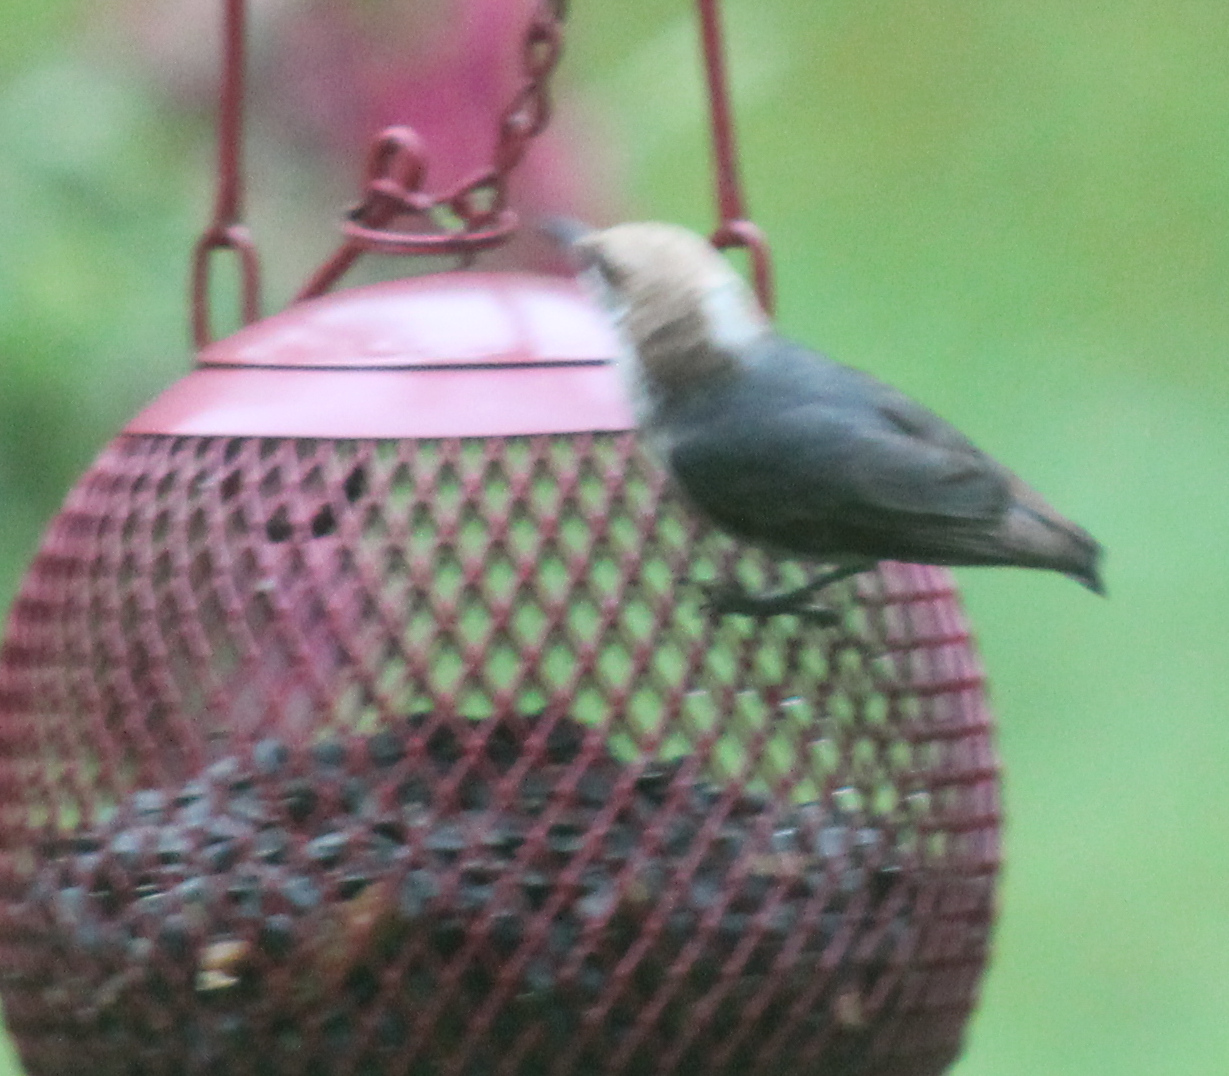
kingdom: Animalia
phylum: Chordata
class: Aves
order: Passeriformes
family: Sittidae
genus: Sitta
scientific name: Sitta pusilla
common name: Brown-headed nuthatch
